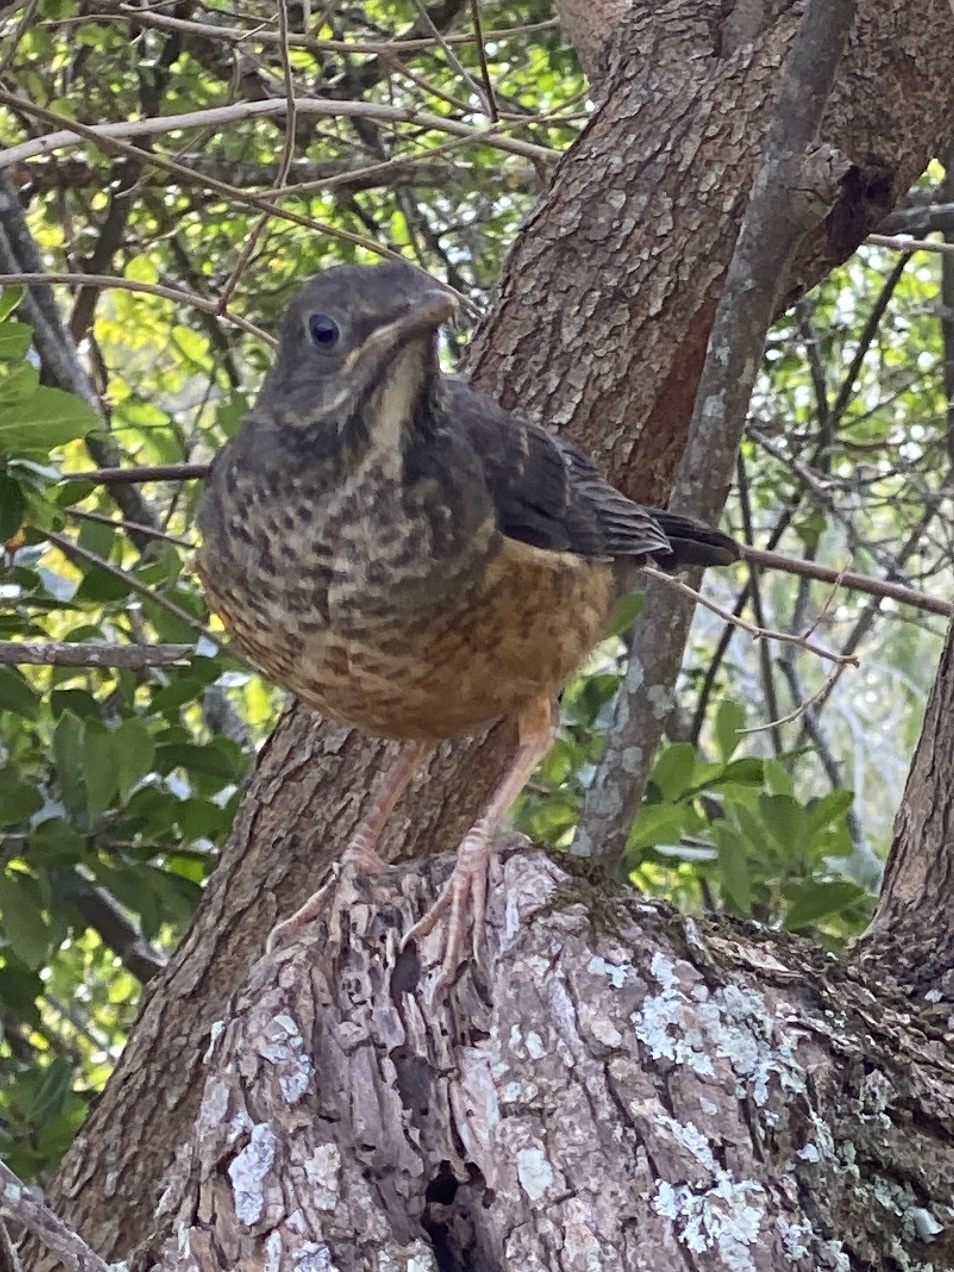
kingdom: Animalia
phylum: Chordata
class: Aves
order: Passeriformes
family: Turdidae
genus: Turdus
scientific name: Turdus olivaceus
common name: Olive thrush
